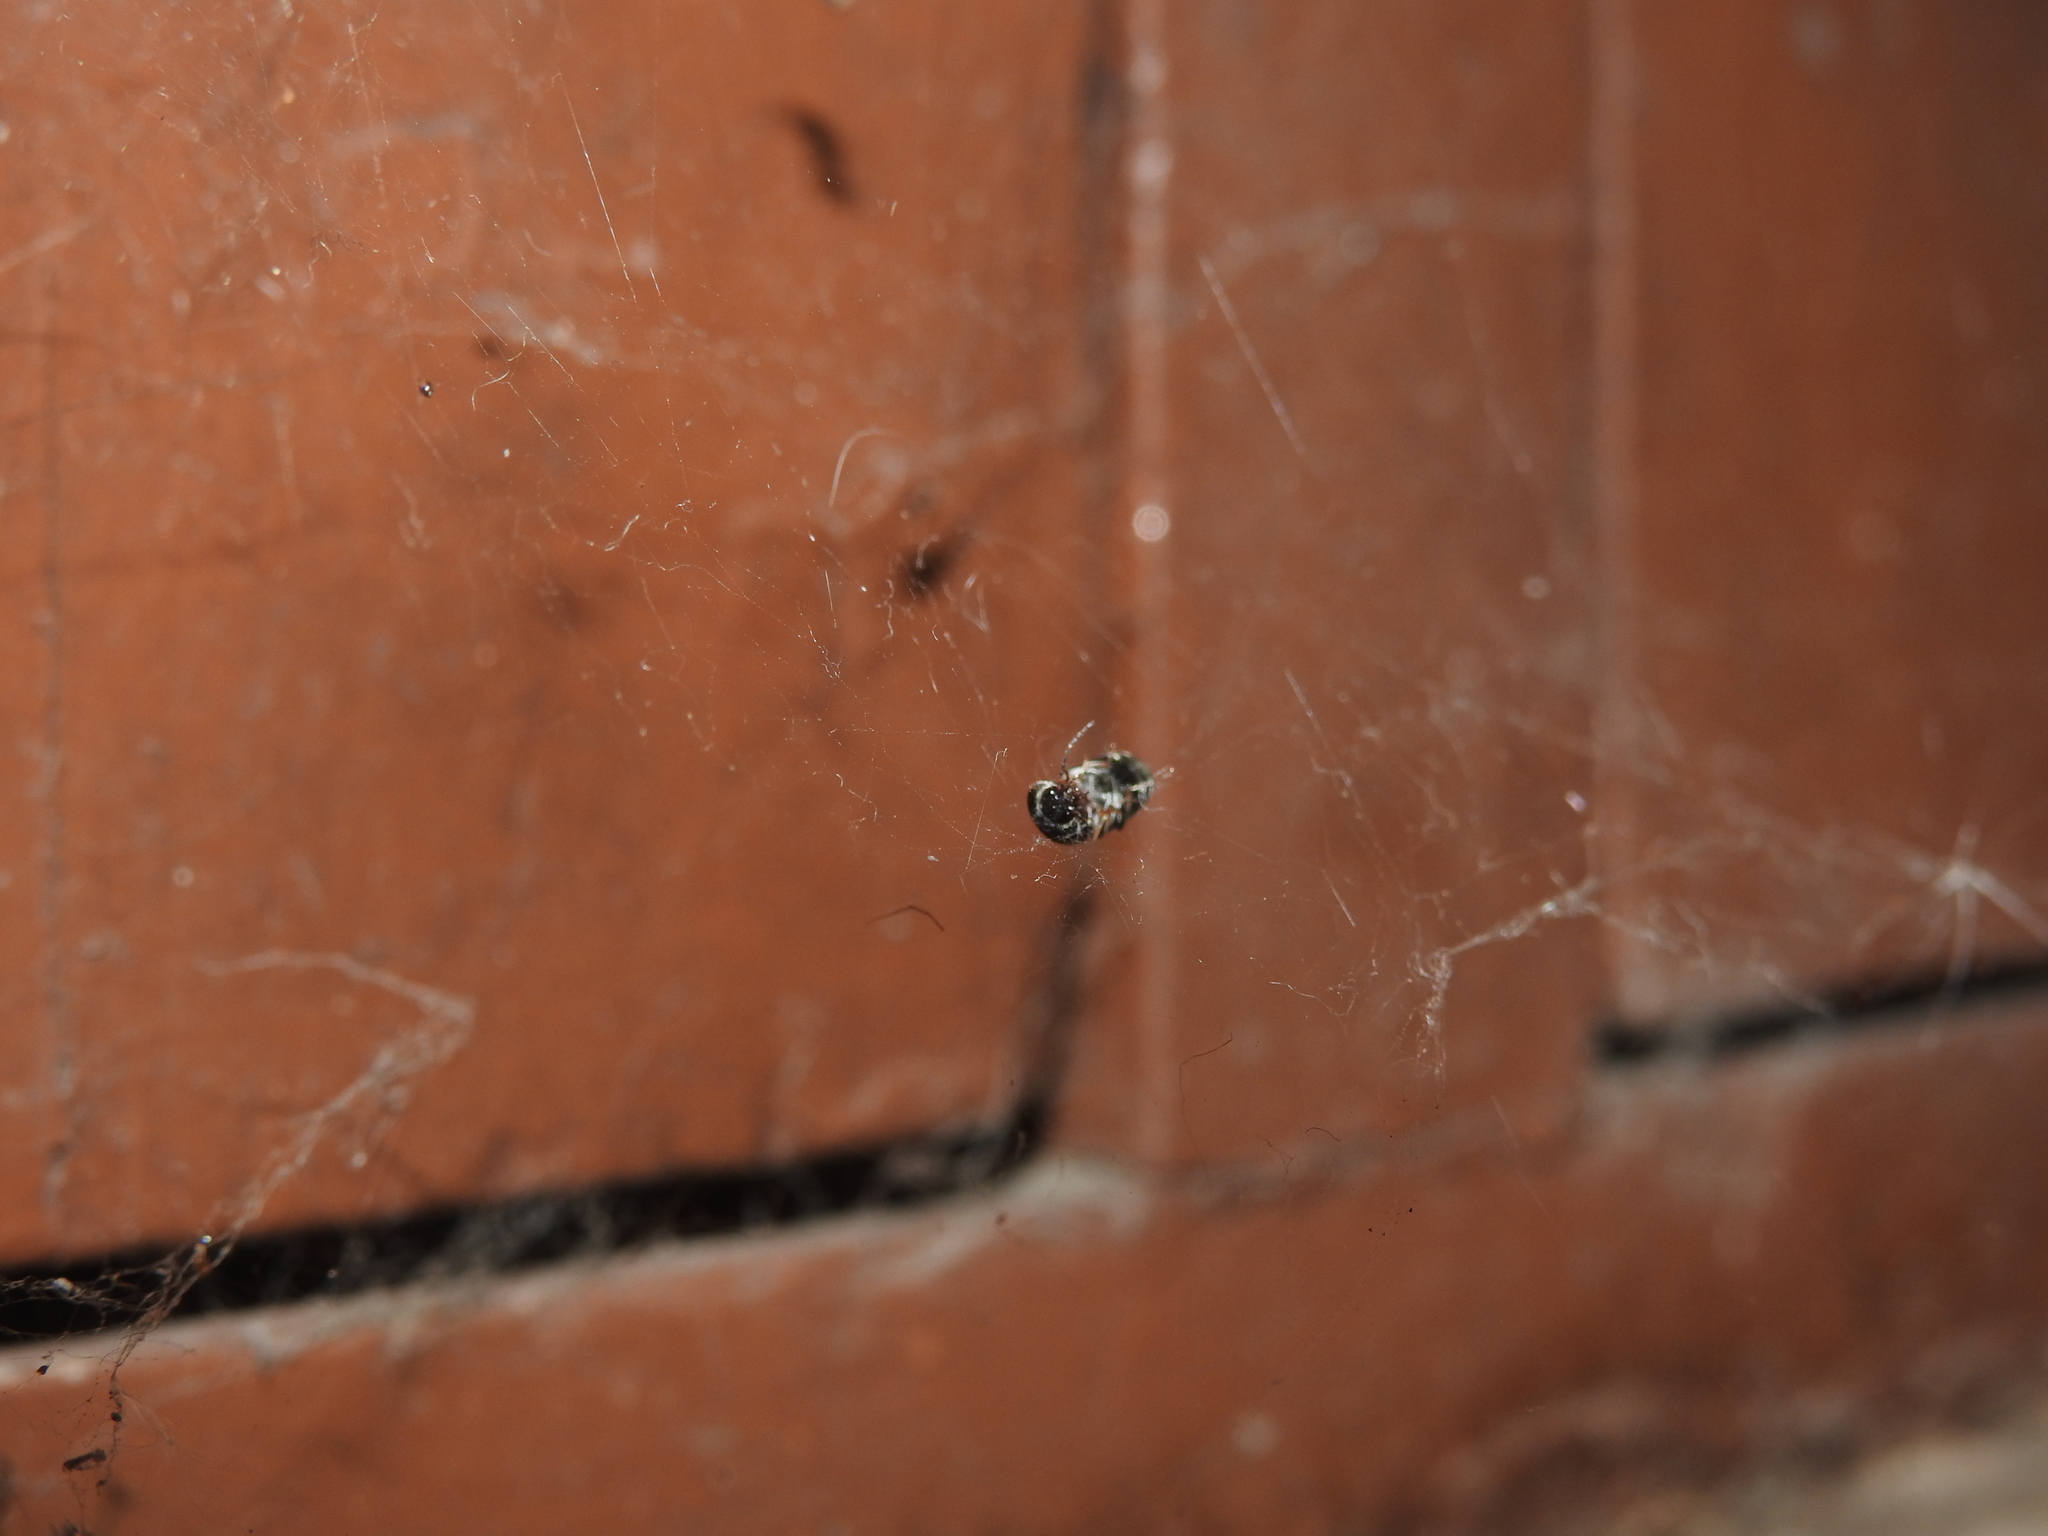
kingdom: Animalia
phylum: Arthropoda
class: Insecta
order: Coleoptera
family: Elateridae
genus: Dicronychus
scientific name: Dicronychus
